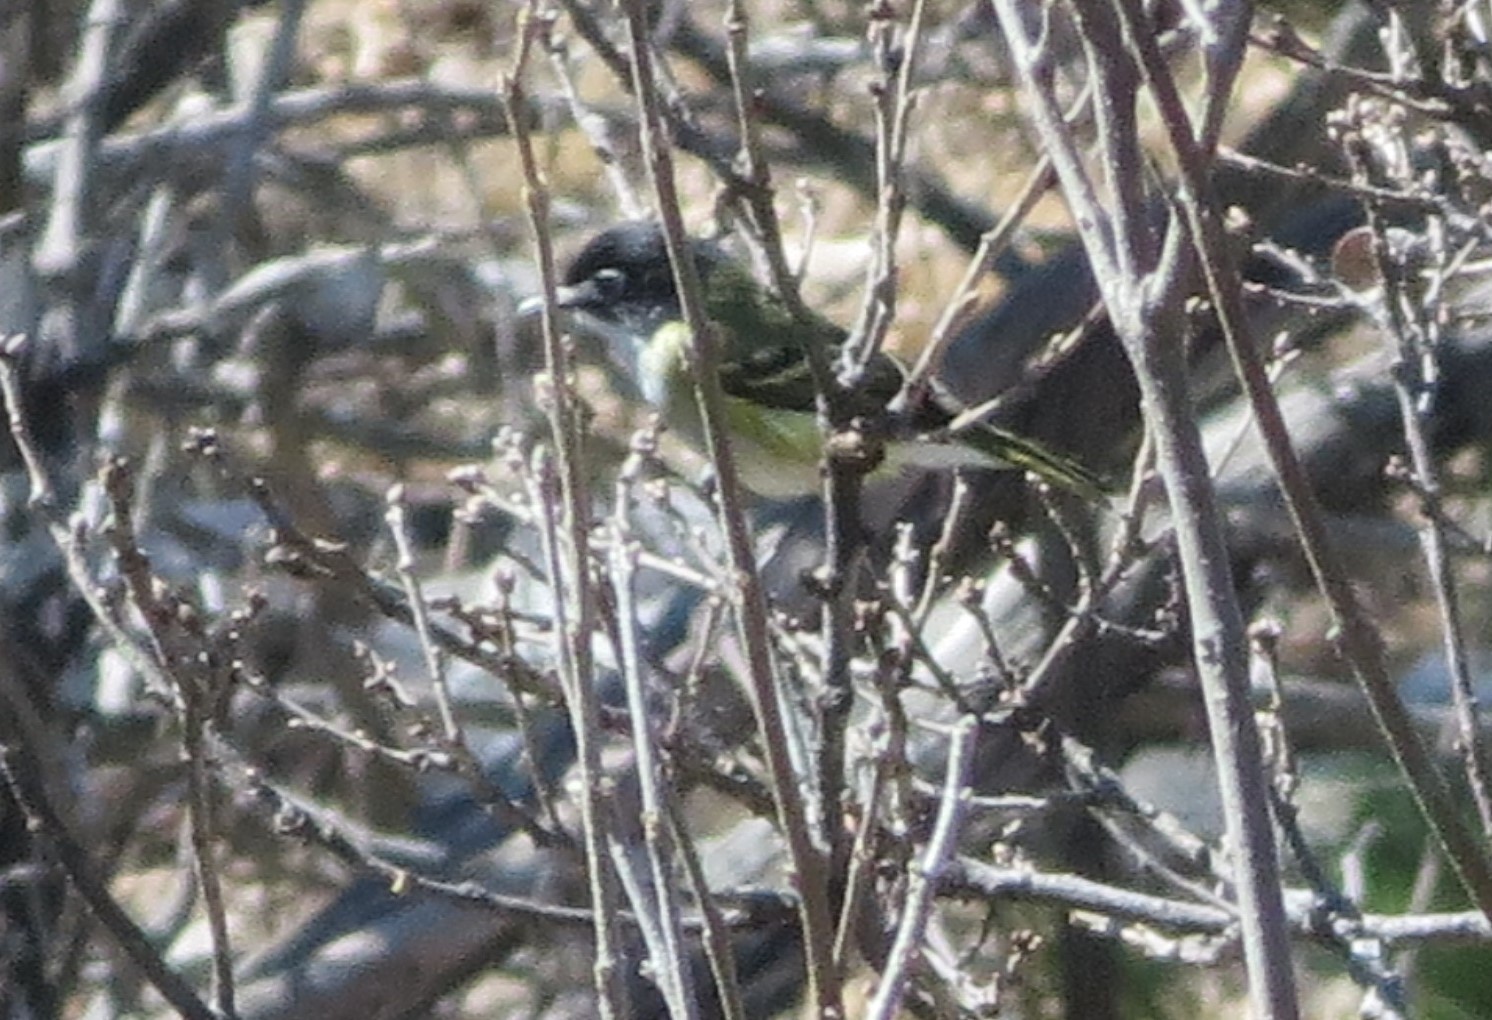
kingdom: Animalia
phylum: Chordata
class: Aves
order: Passeriformes
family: Vireonidae
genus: Vireo
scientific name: Vireo atricapilla
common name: Black-capped vireo
